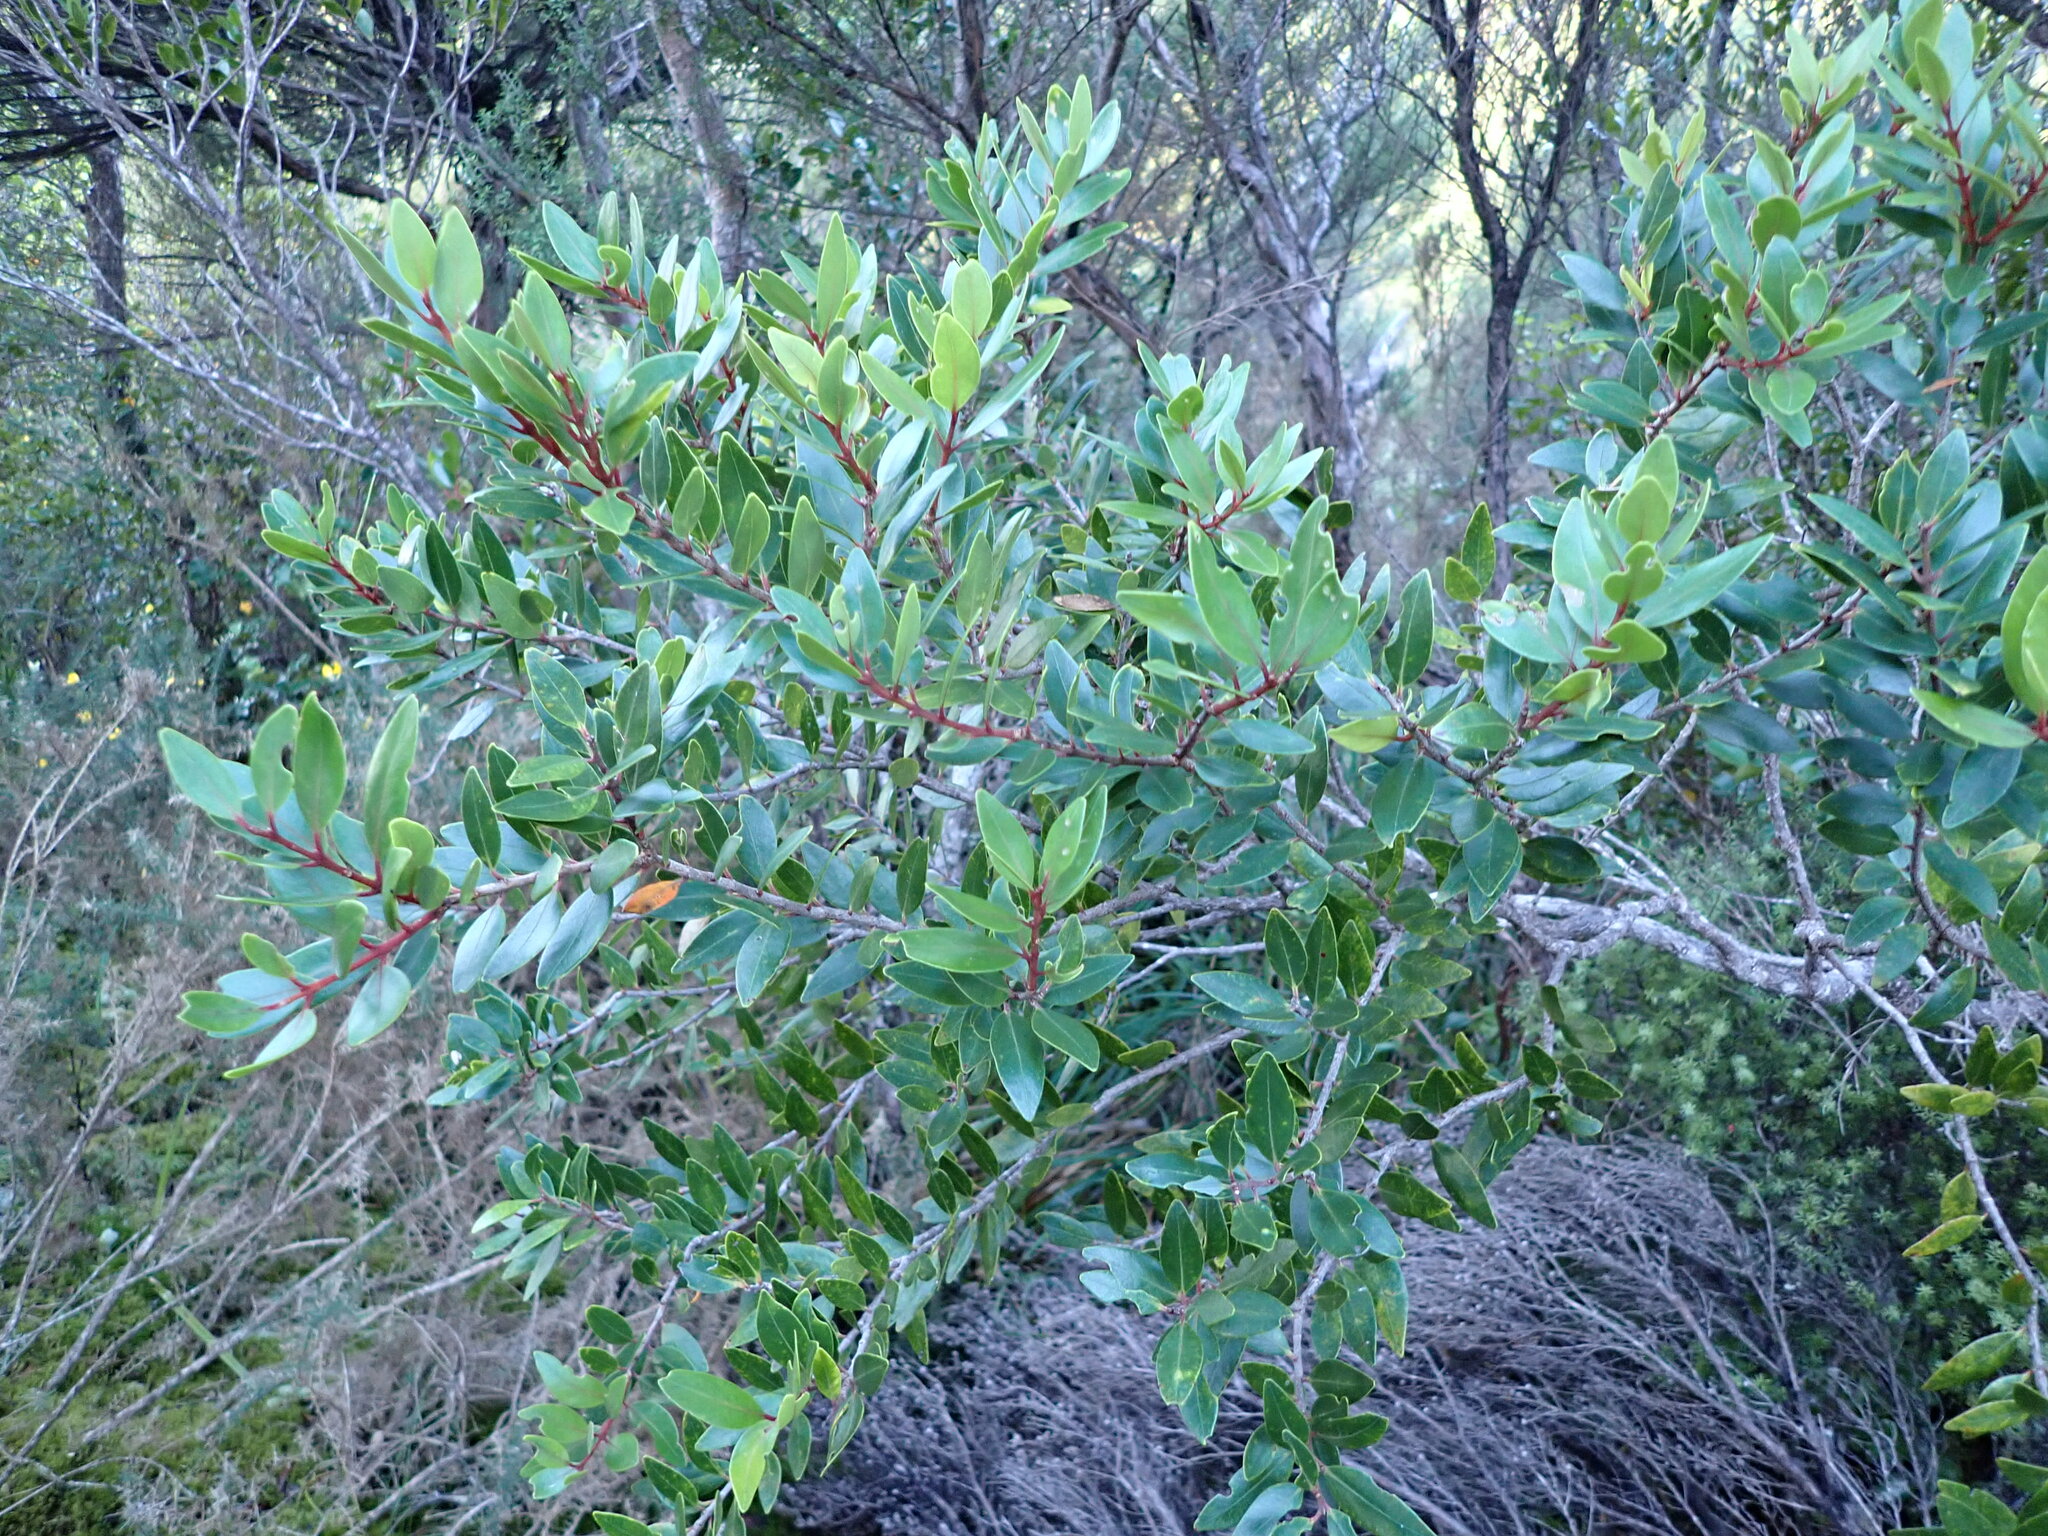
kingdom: Plantae
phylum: Tracheophyta
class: Magnoliopsida
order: Myrtales
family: Myrtaceae
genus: Metrosideros
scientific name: Metrosideros robusta
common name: Northern rata
